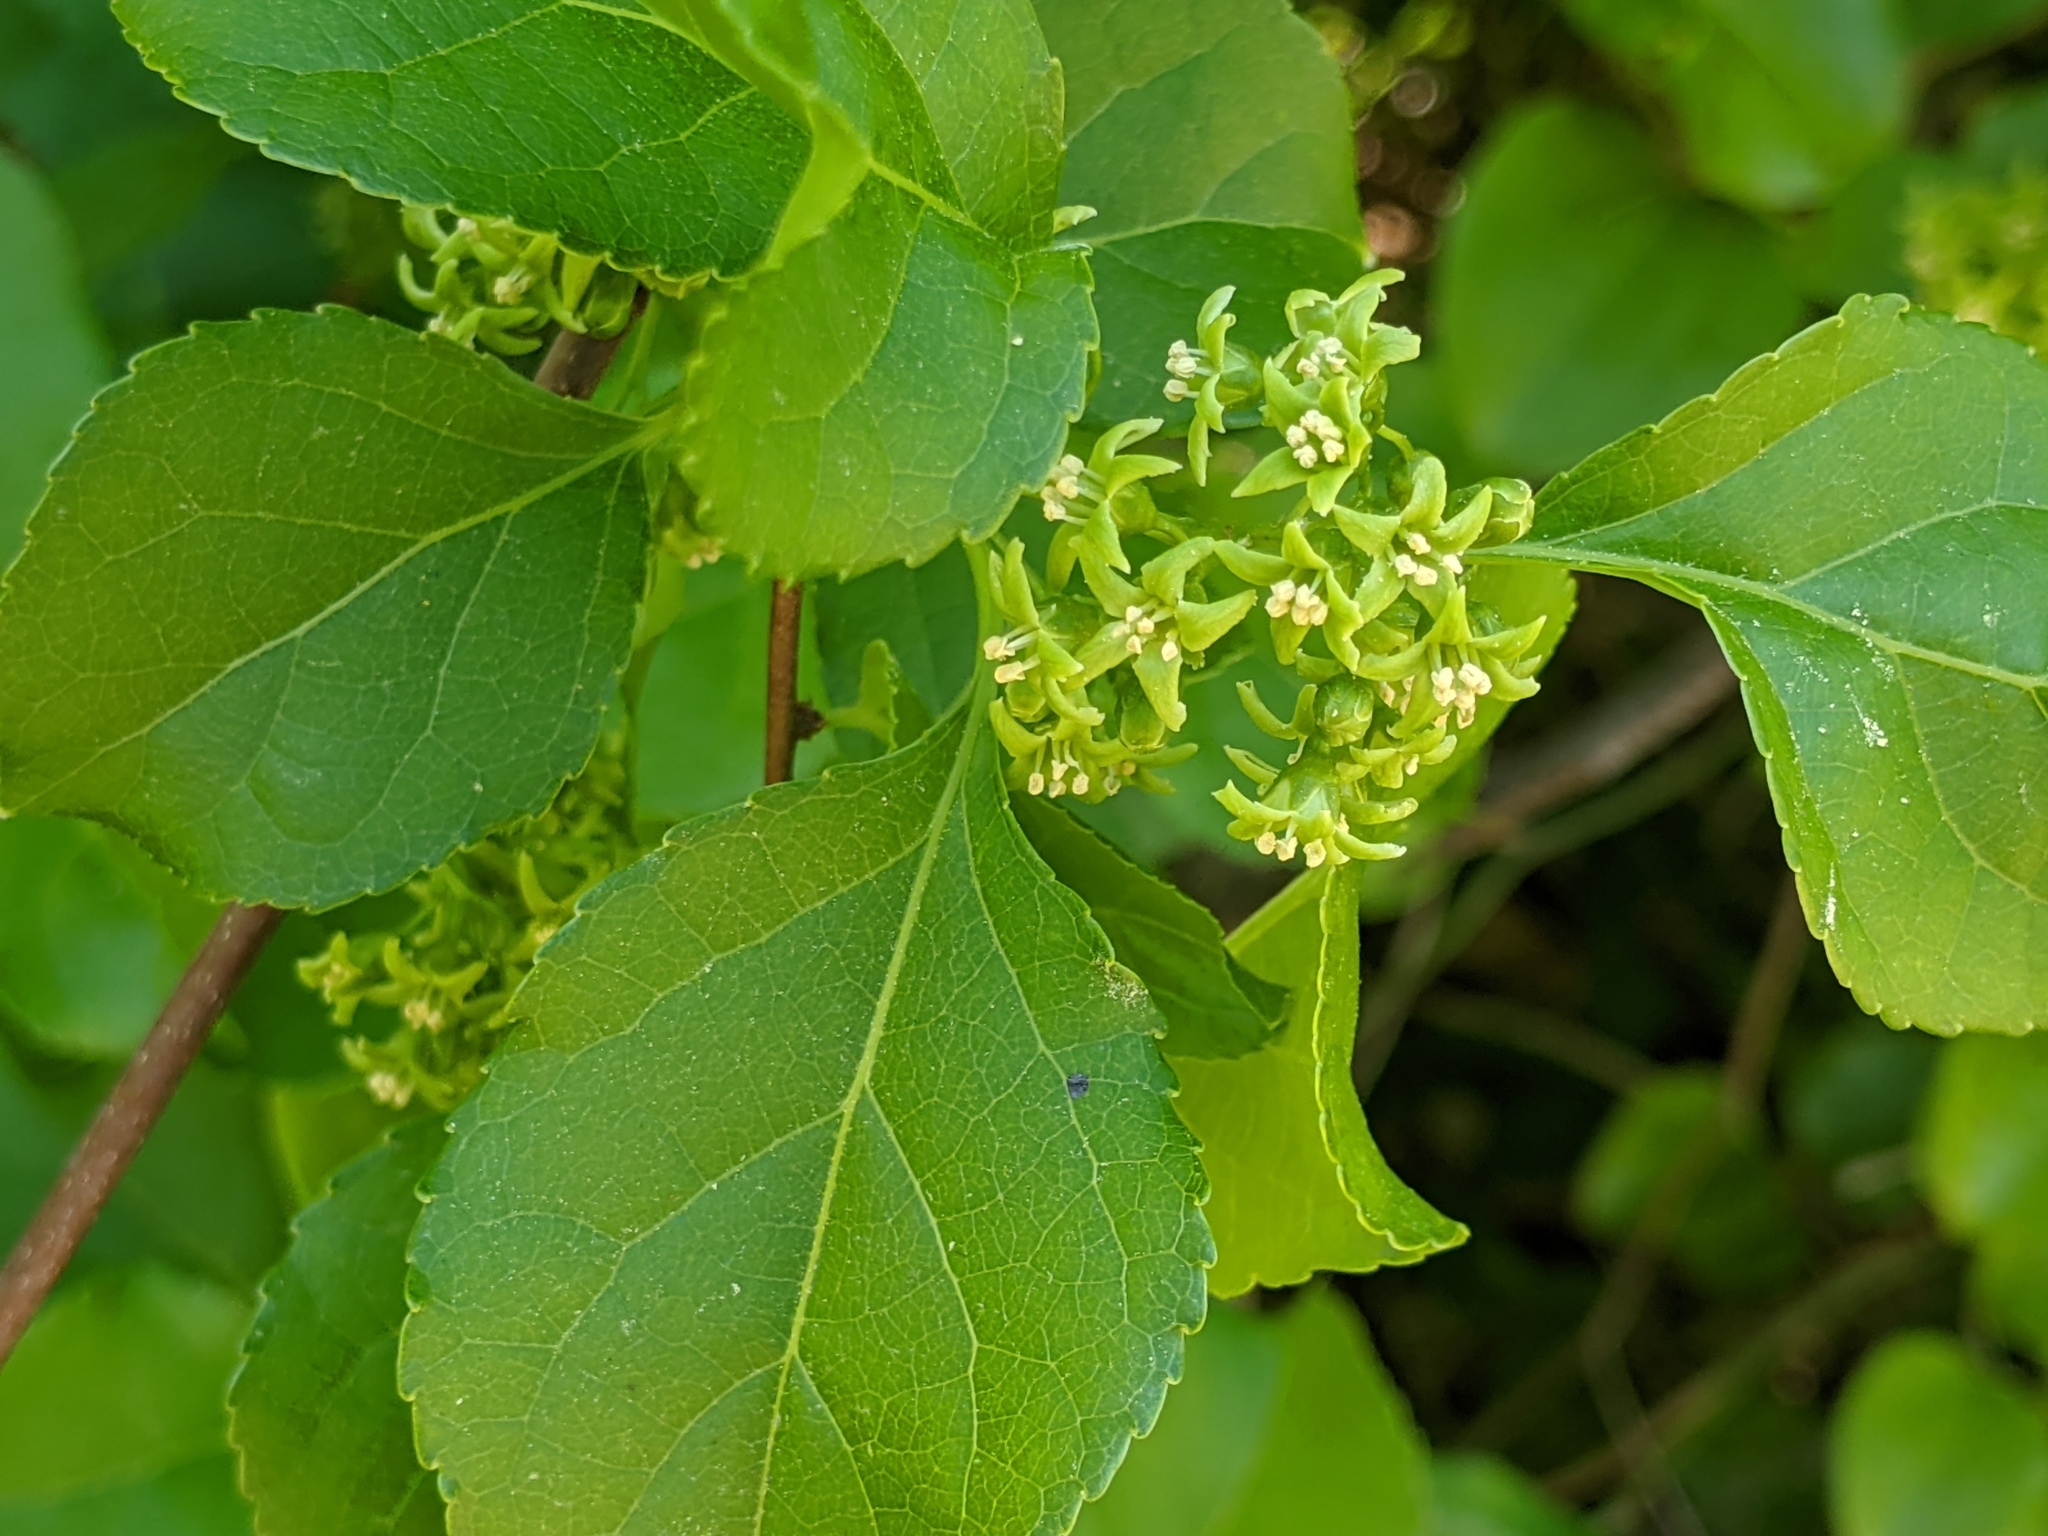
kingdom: Plantae
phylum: Tracheophyta
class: Magnoliopsida
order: Celastrales
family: Celastraceae
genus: Celastrus
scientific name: Celastrus orbiculatus
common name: Oriental bittersweet
